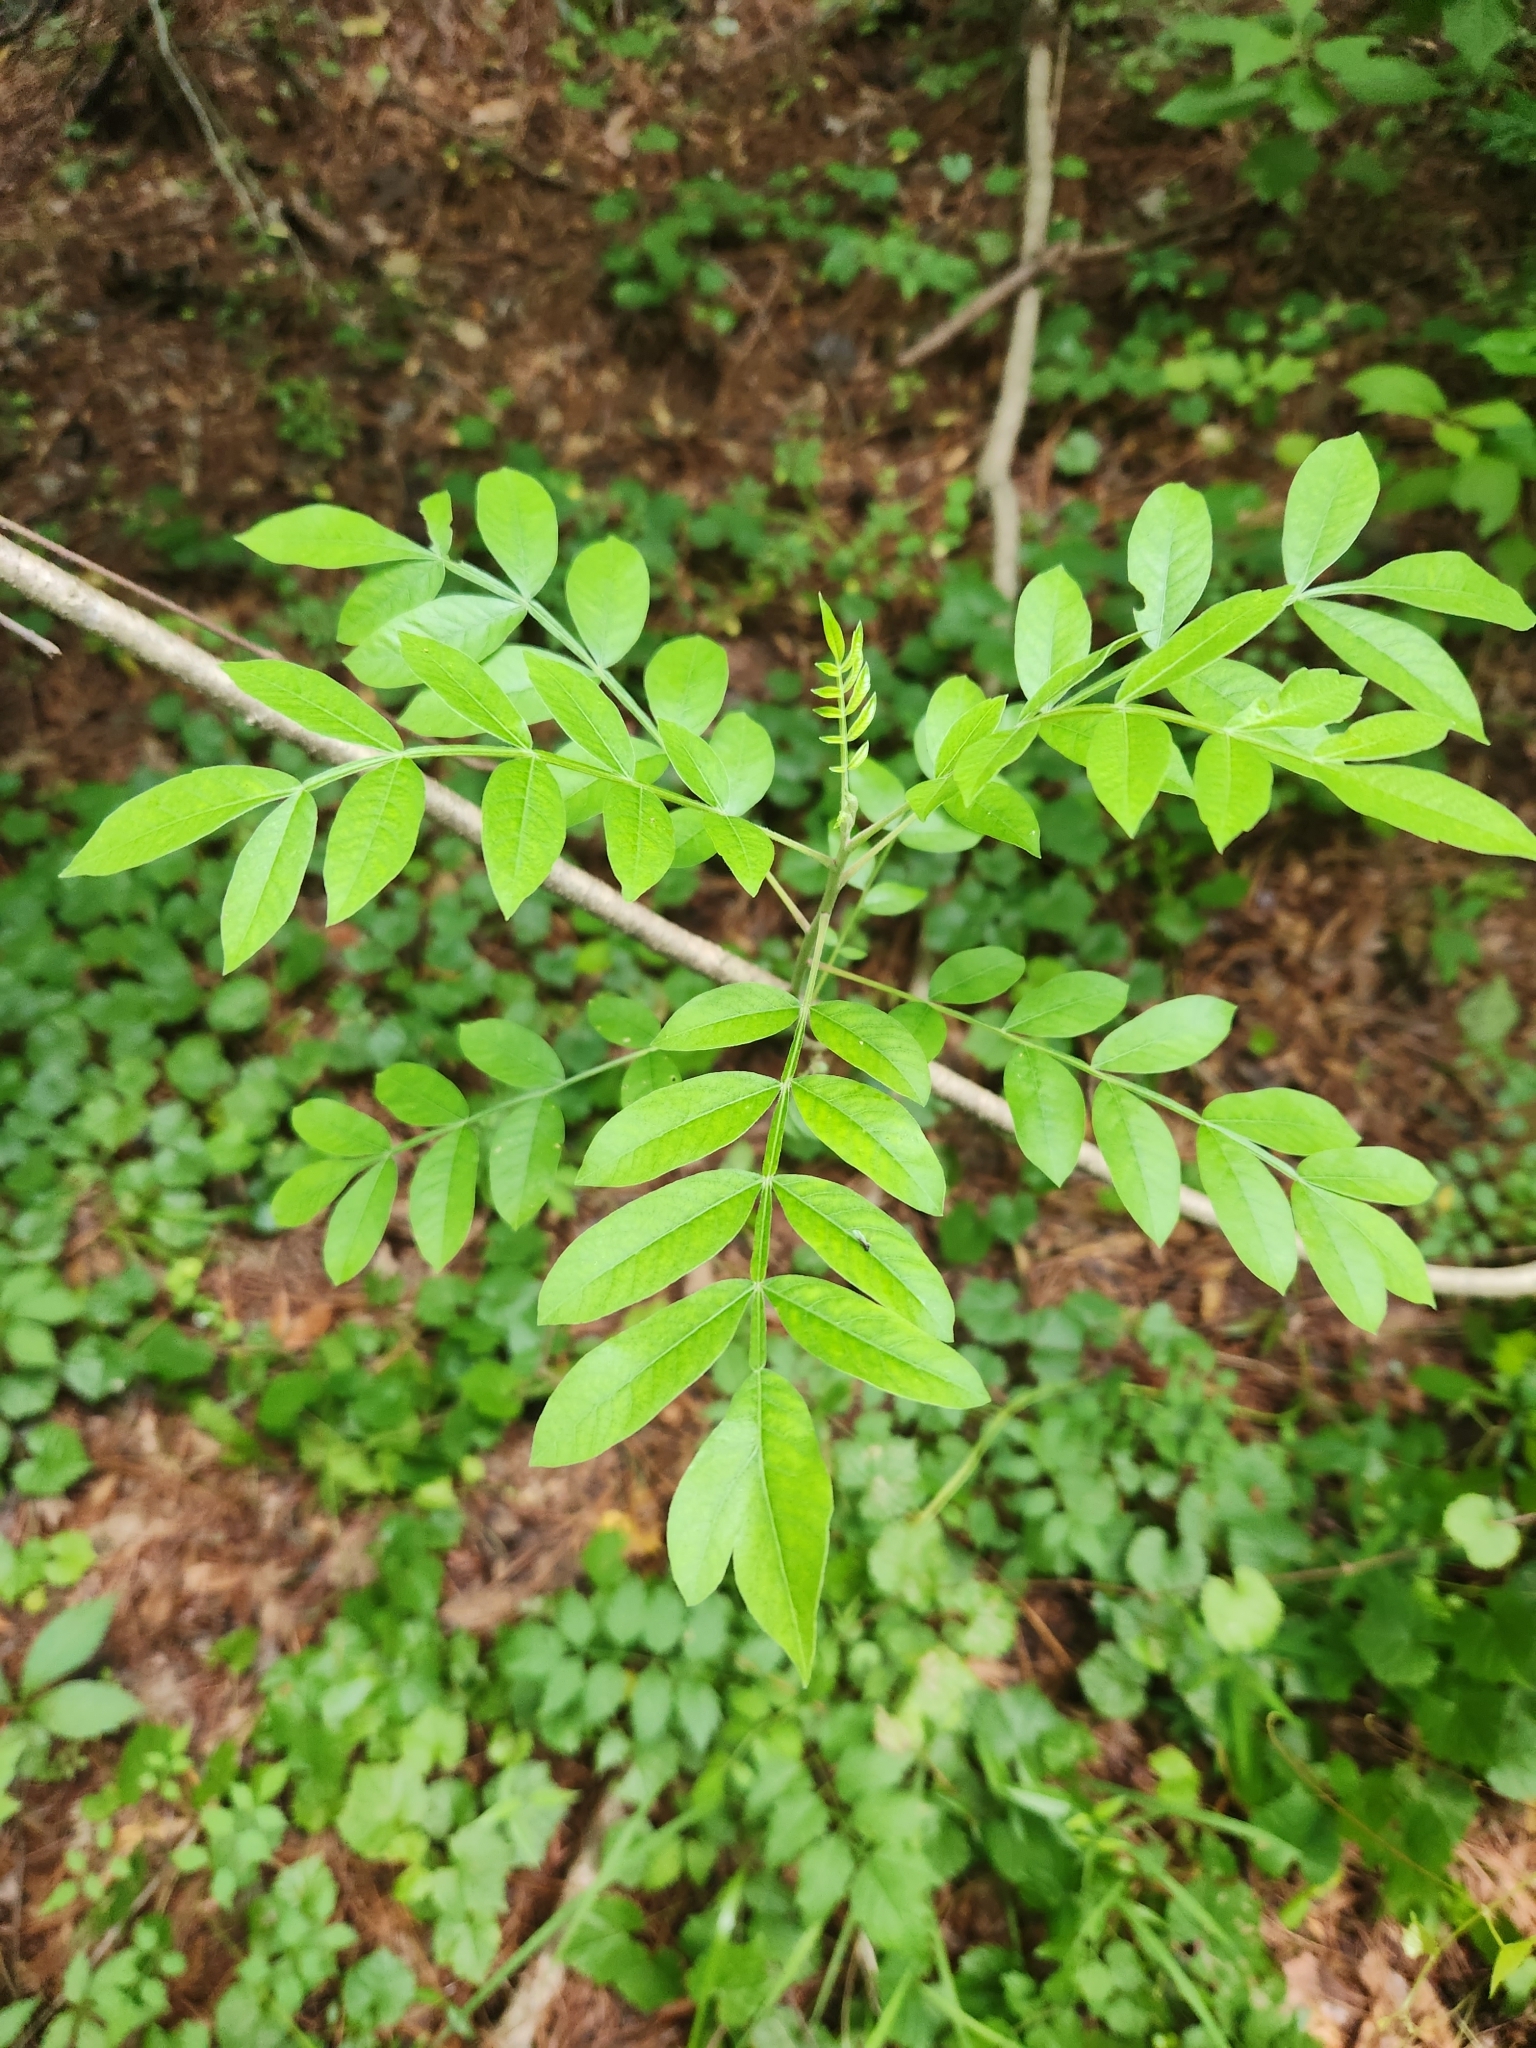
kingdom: Plantae
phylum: Tracheophyta
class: Magnoliopsida
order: Sapindales
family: Anacardiaceae
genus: Rhus
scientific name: Rhus copallina
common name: Shining sumac
